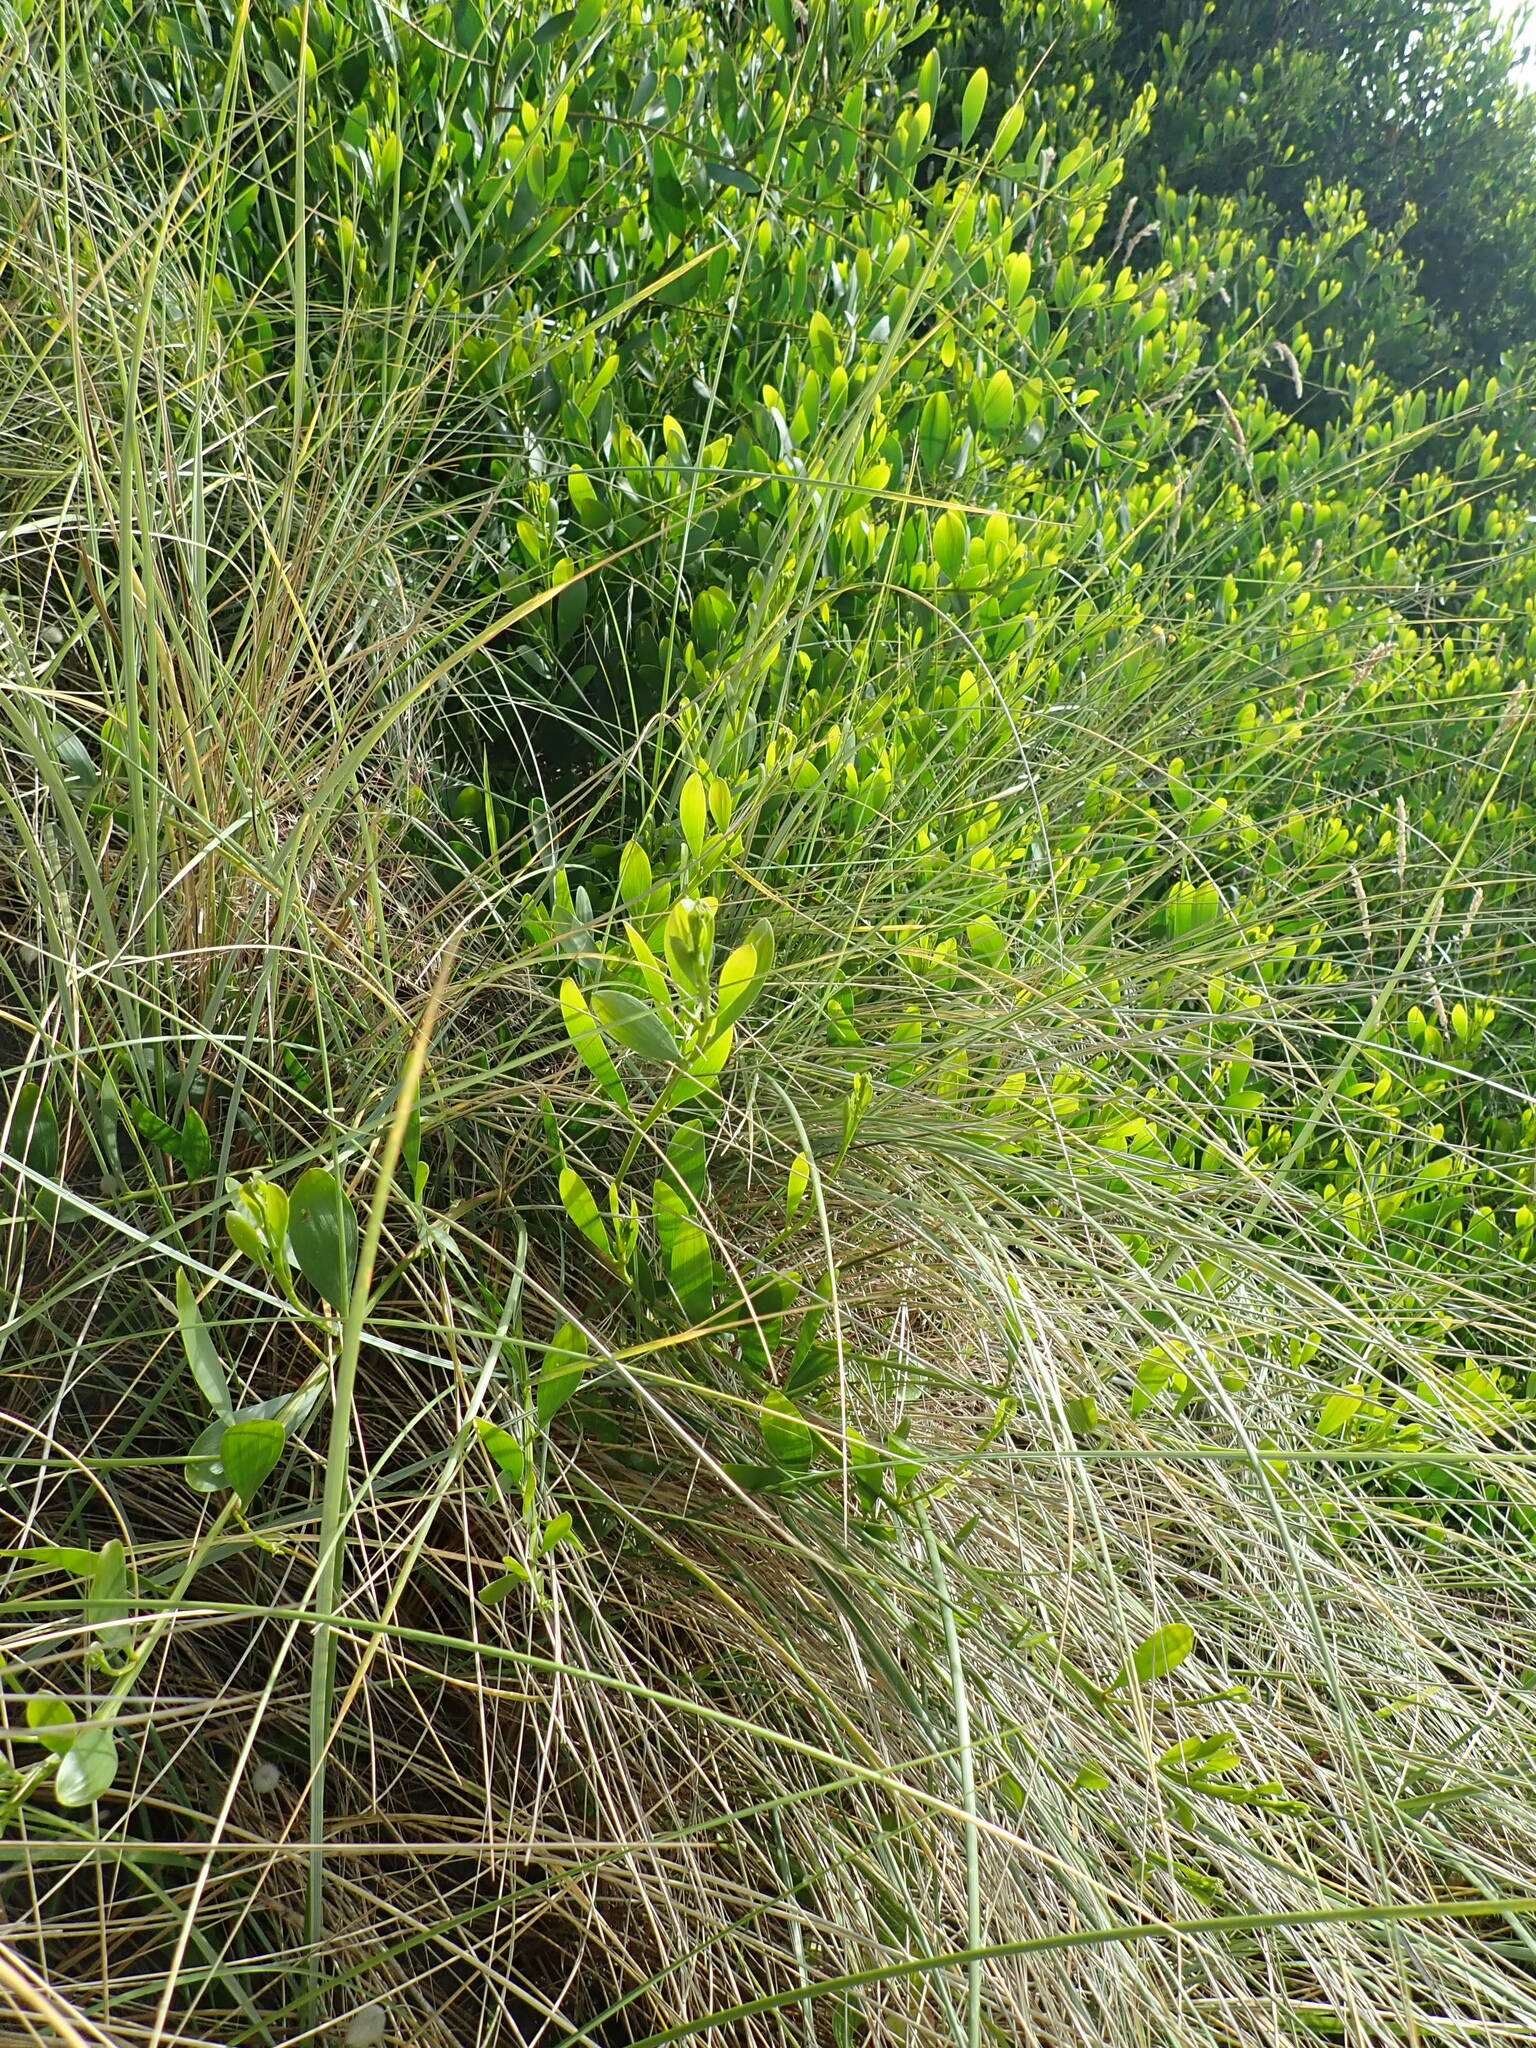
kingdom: Plantae
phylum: Tracheophyta
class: Magnoliopsida
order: Fabales
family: Fabaceae
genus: Acacia
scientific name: Acacia longifolia
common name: Sydney golden wattle
